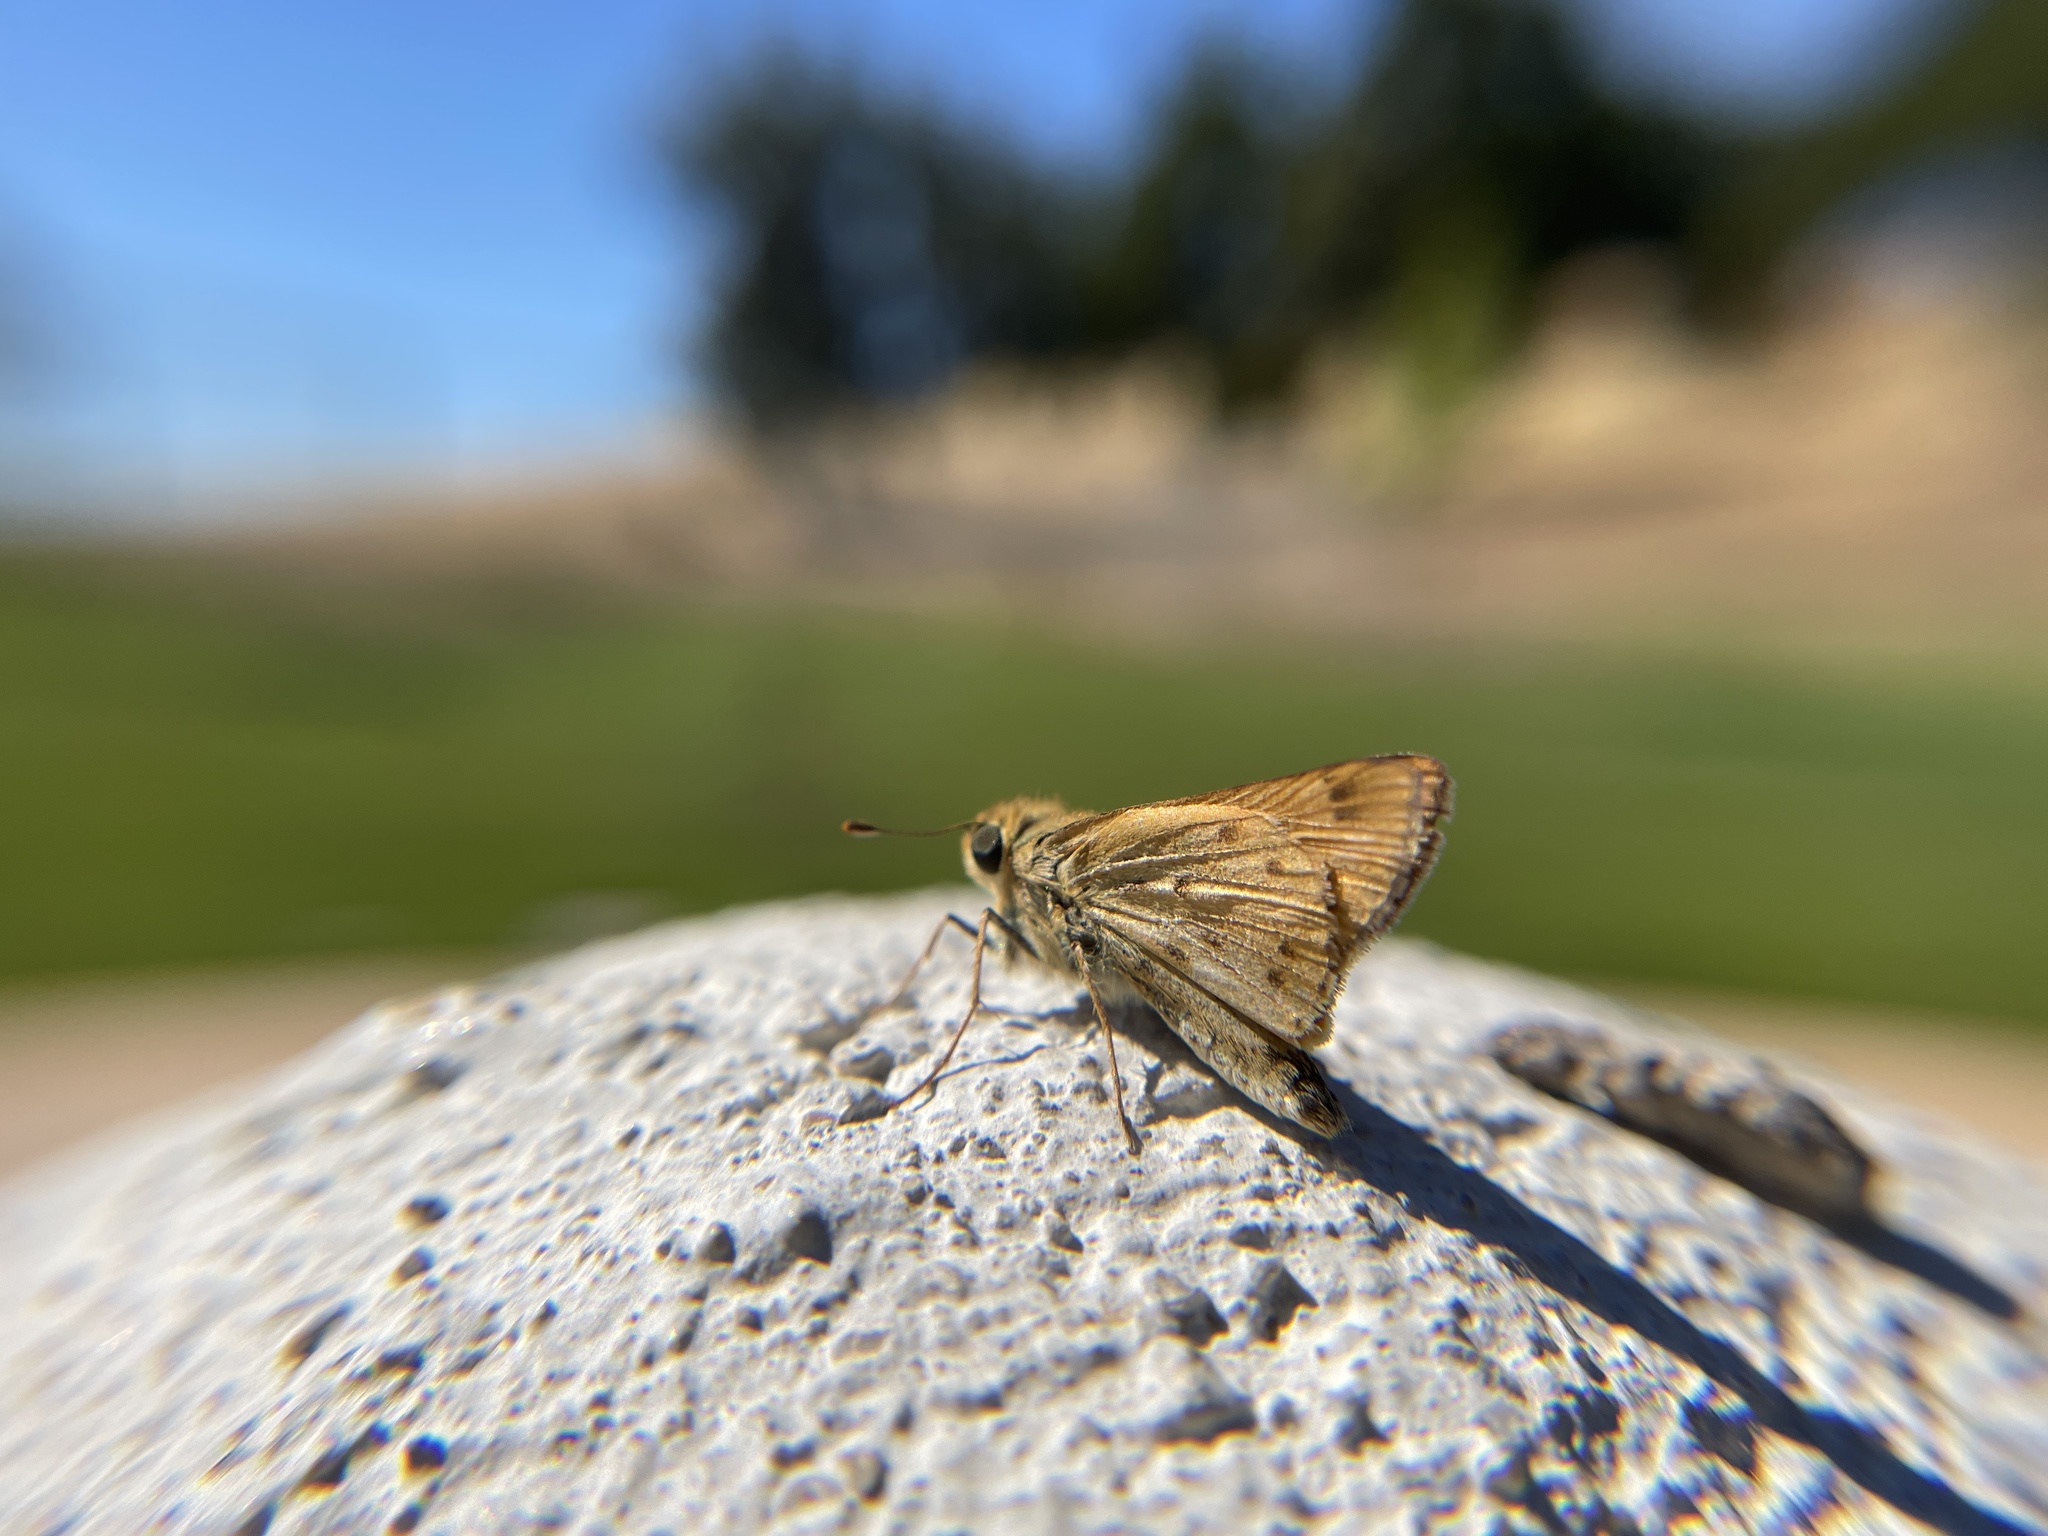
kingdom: Animalia
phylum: Arthropoda
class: Insecta
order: Lepidoptera
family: Hesperiidae
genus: Hylephila
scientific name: Hylephila phyleus
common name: Fiery skipper
